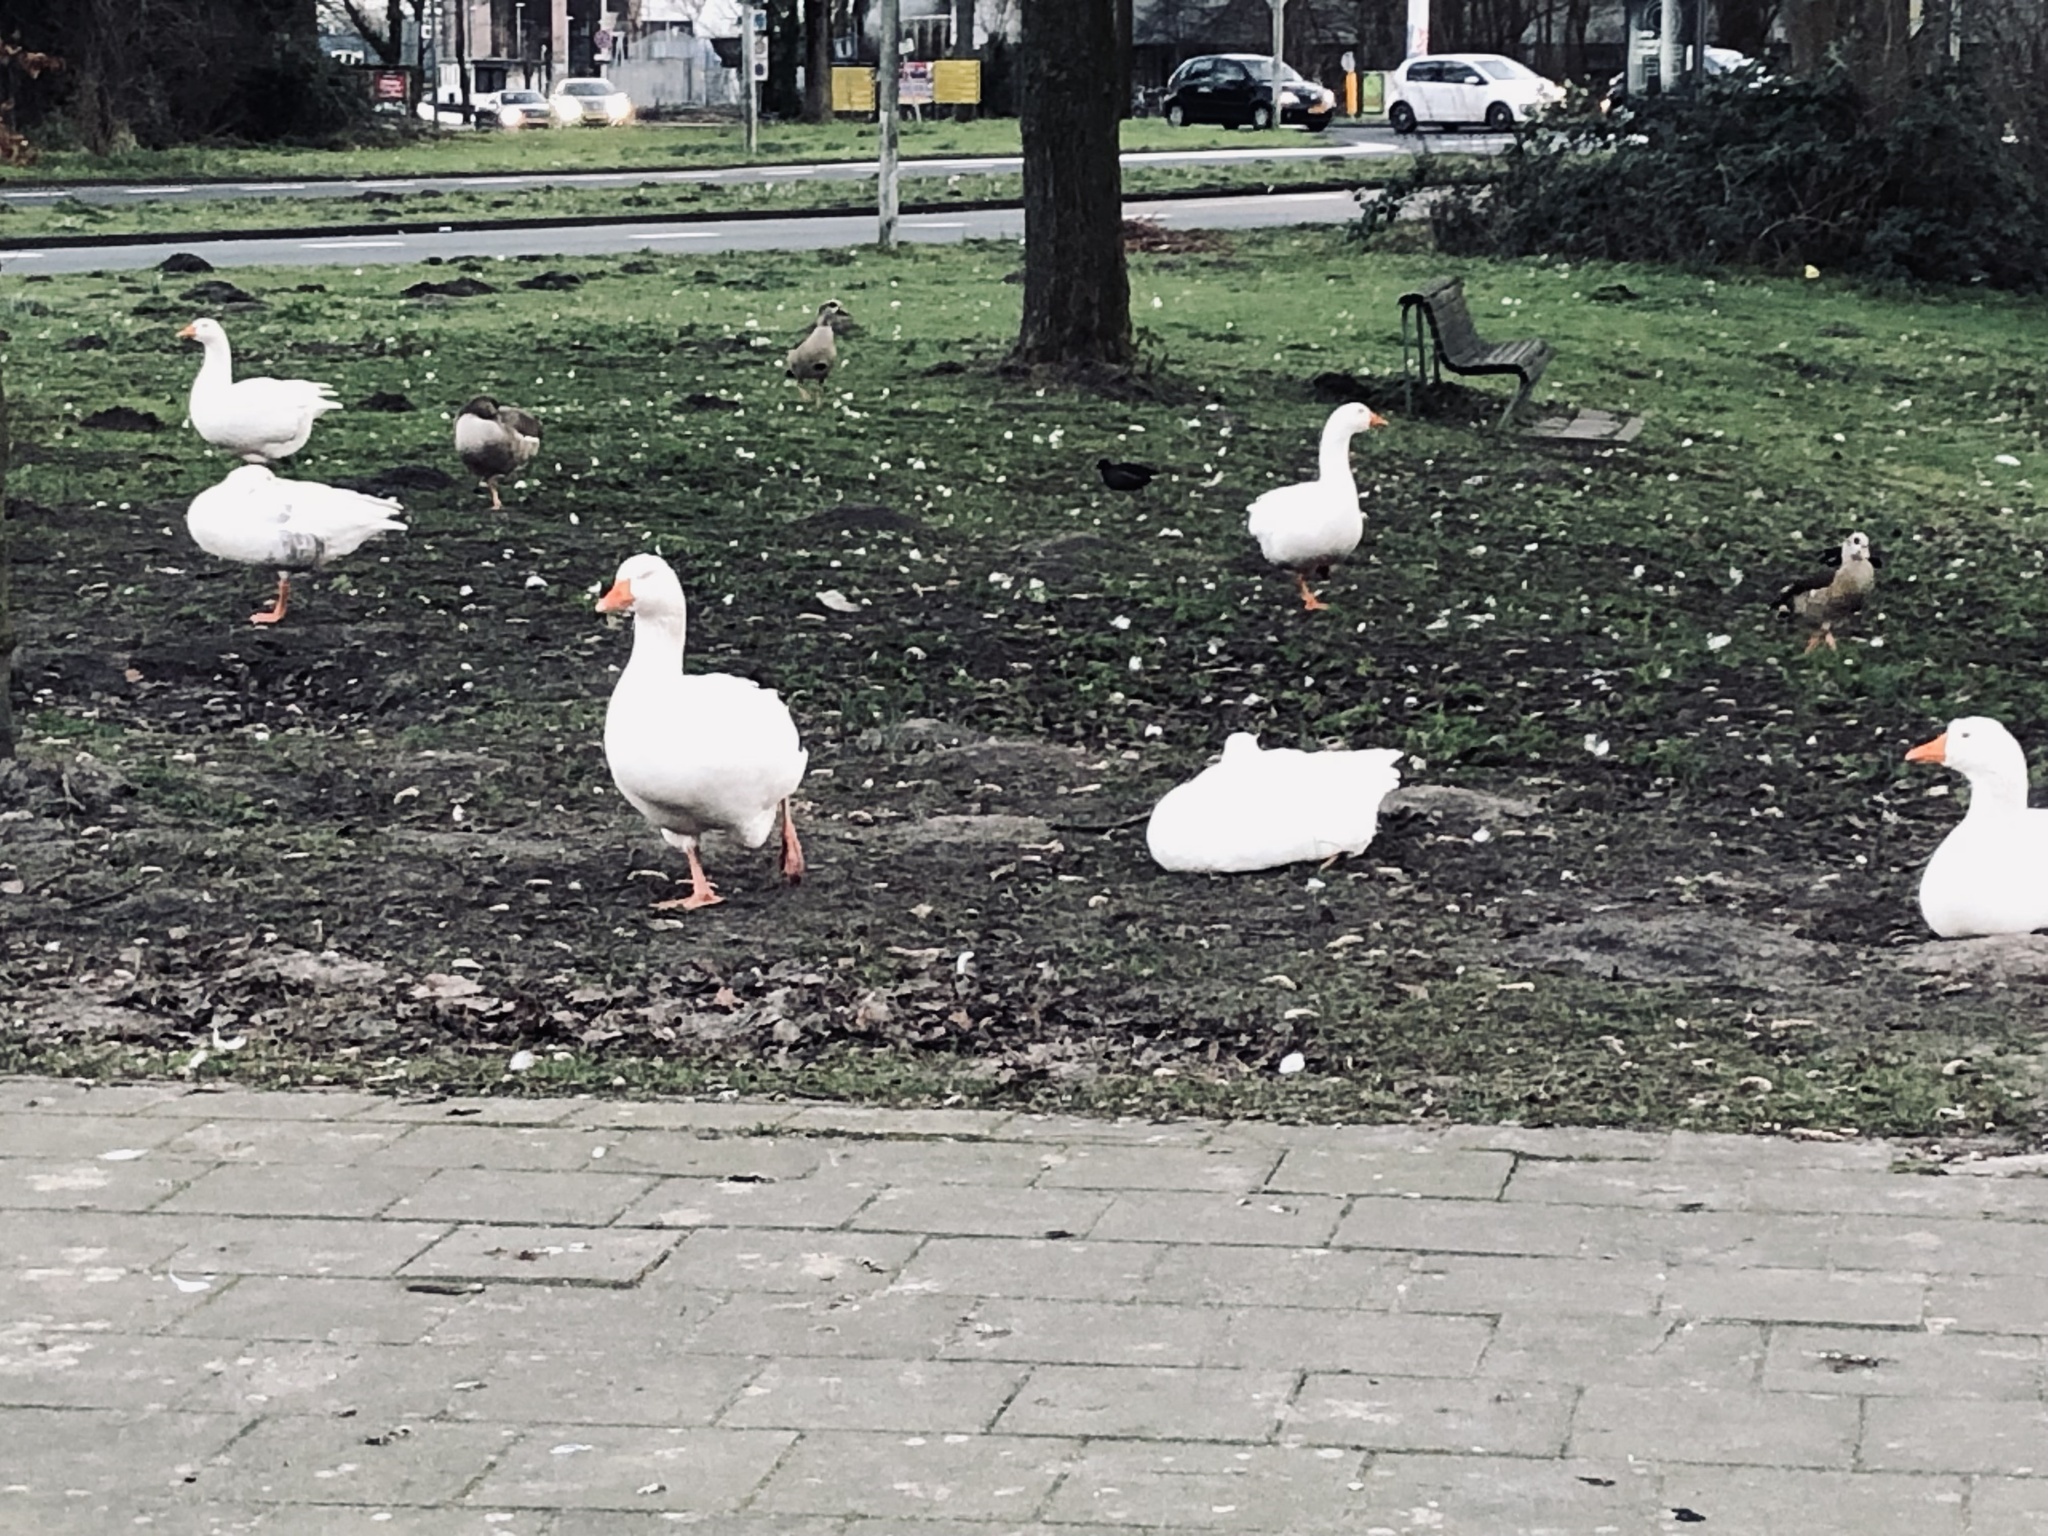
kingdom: Animalia
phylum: Chordata
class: Aves
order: Anseriformes
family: Anatidae
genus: Anser
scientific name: Anser anser
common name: Greylag goose
